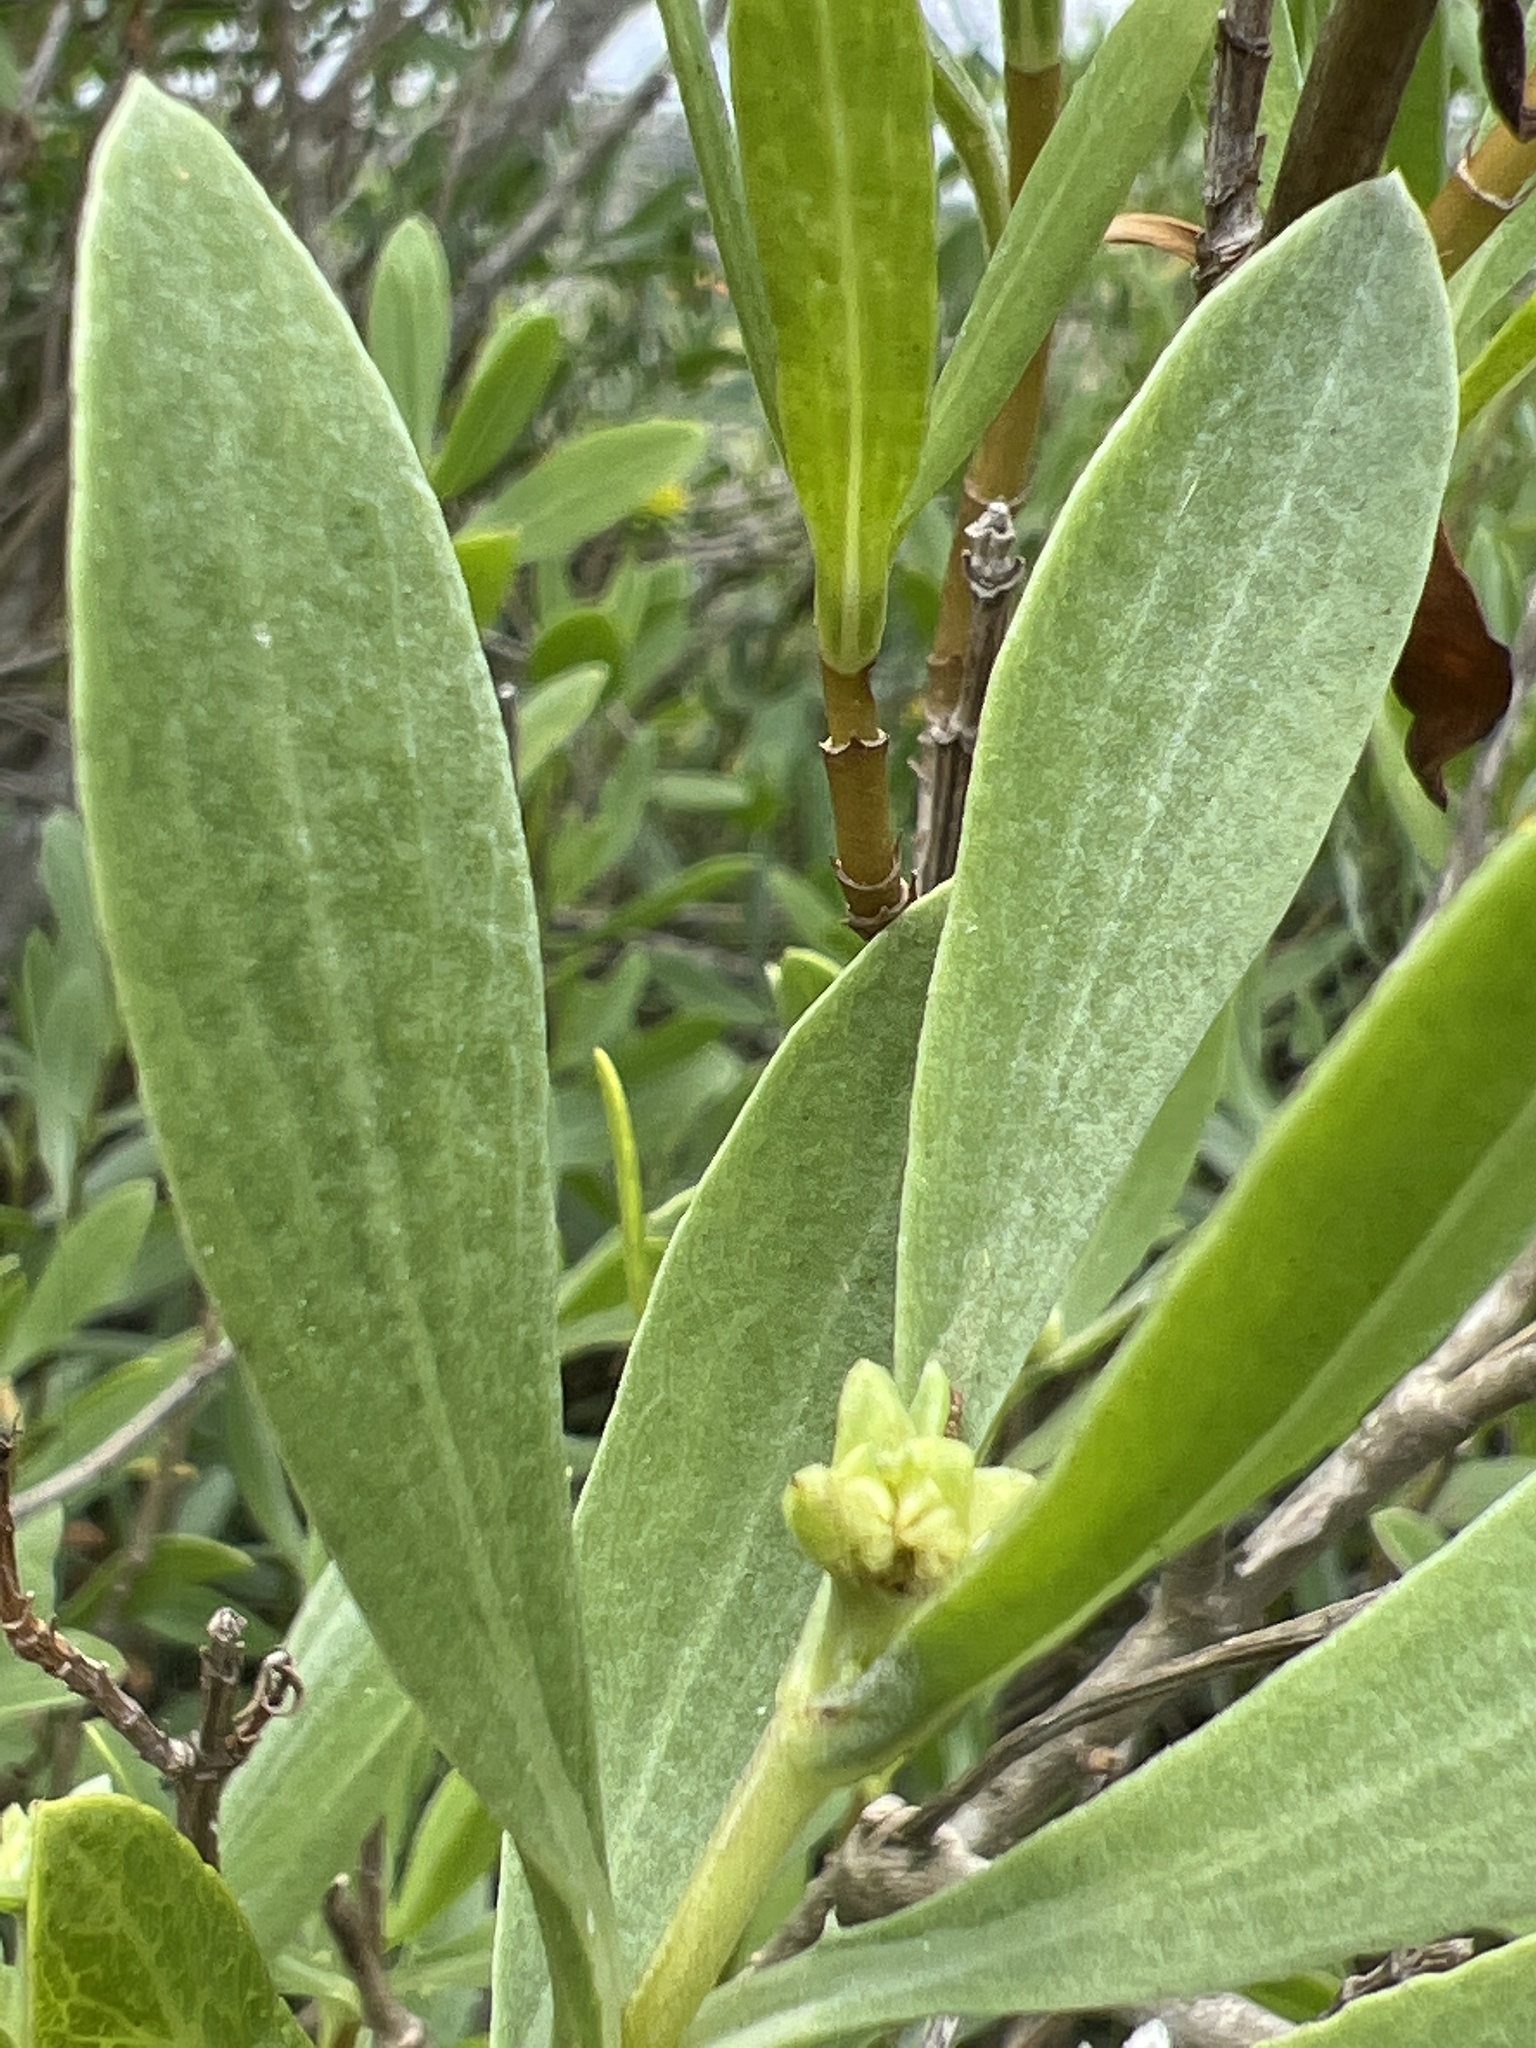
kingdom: Plantae
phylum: Tracheophyta
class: Magnoliopsida
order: Asterales
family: Asteraceae
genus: Borrichia
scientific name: Borrichia frutescens
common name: Sea oxeye
